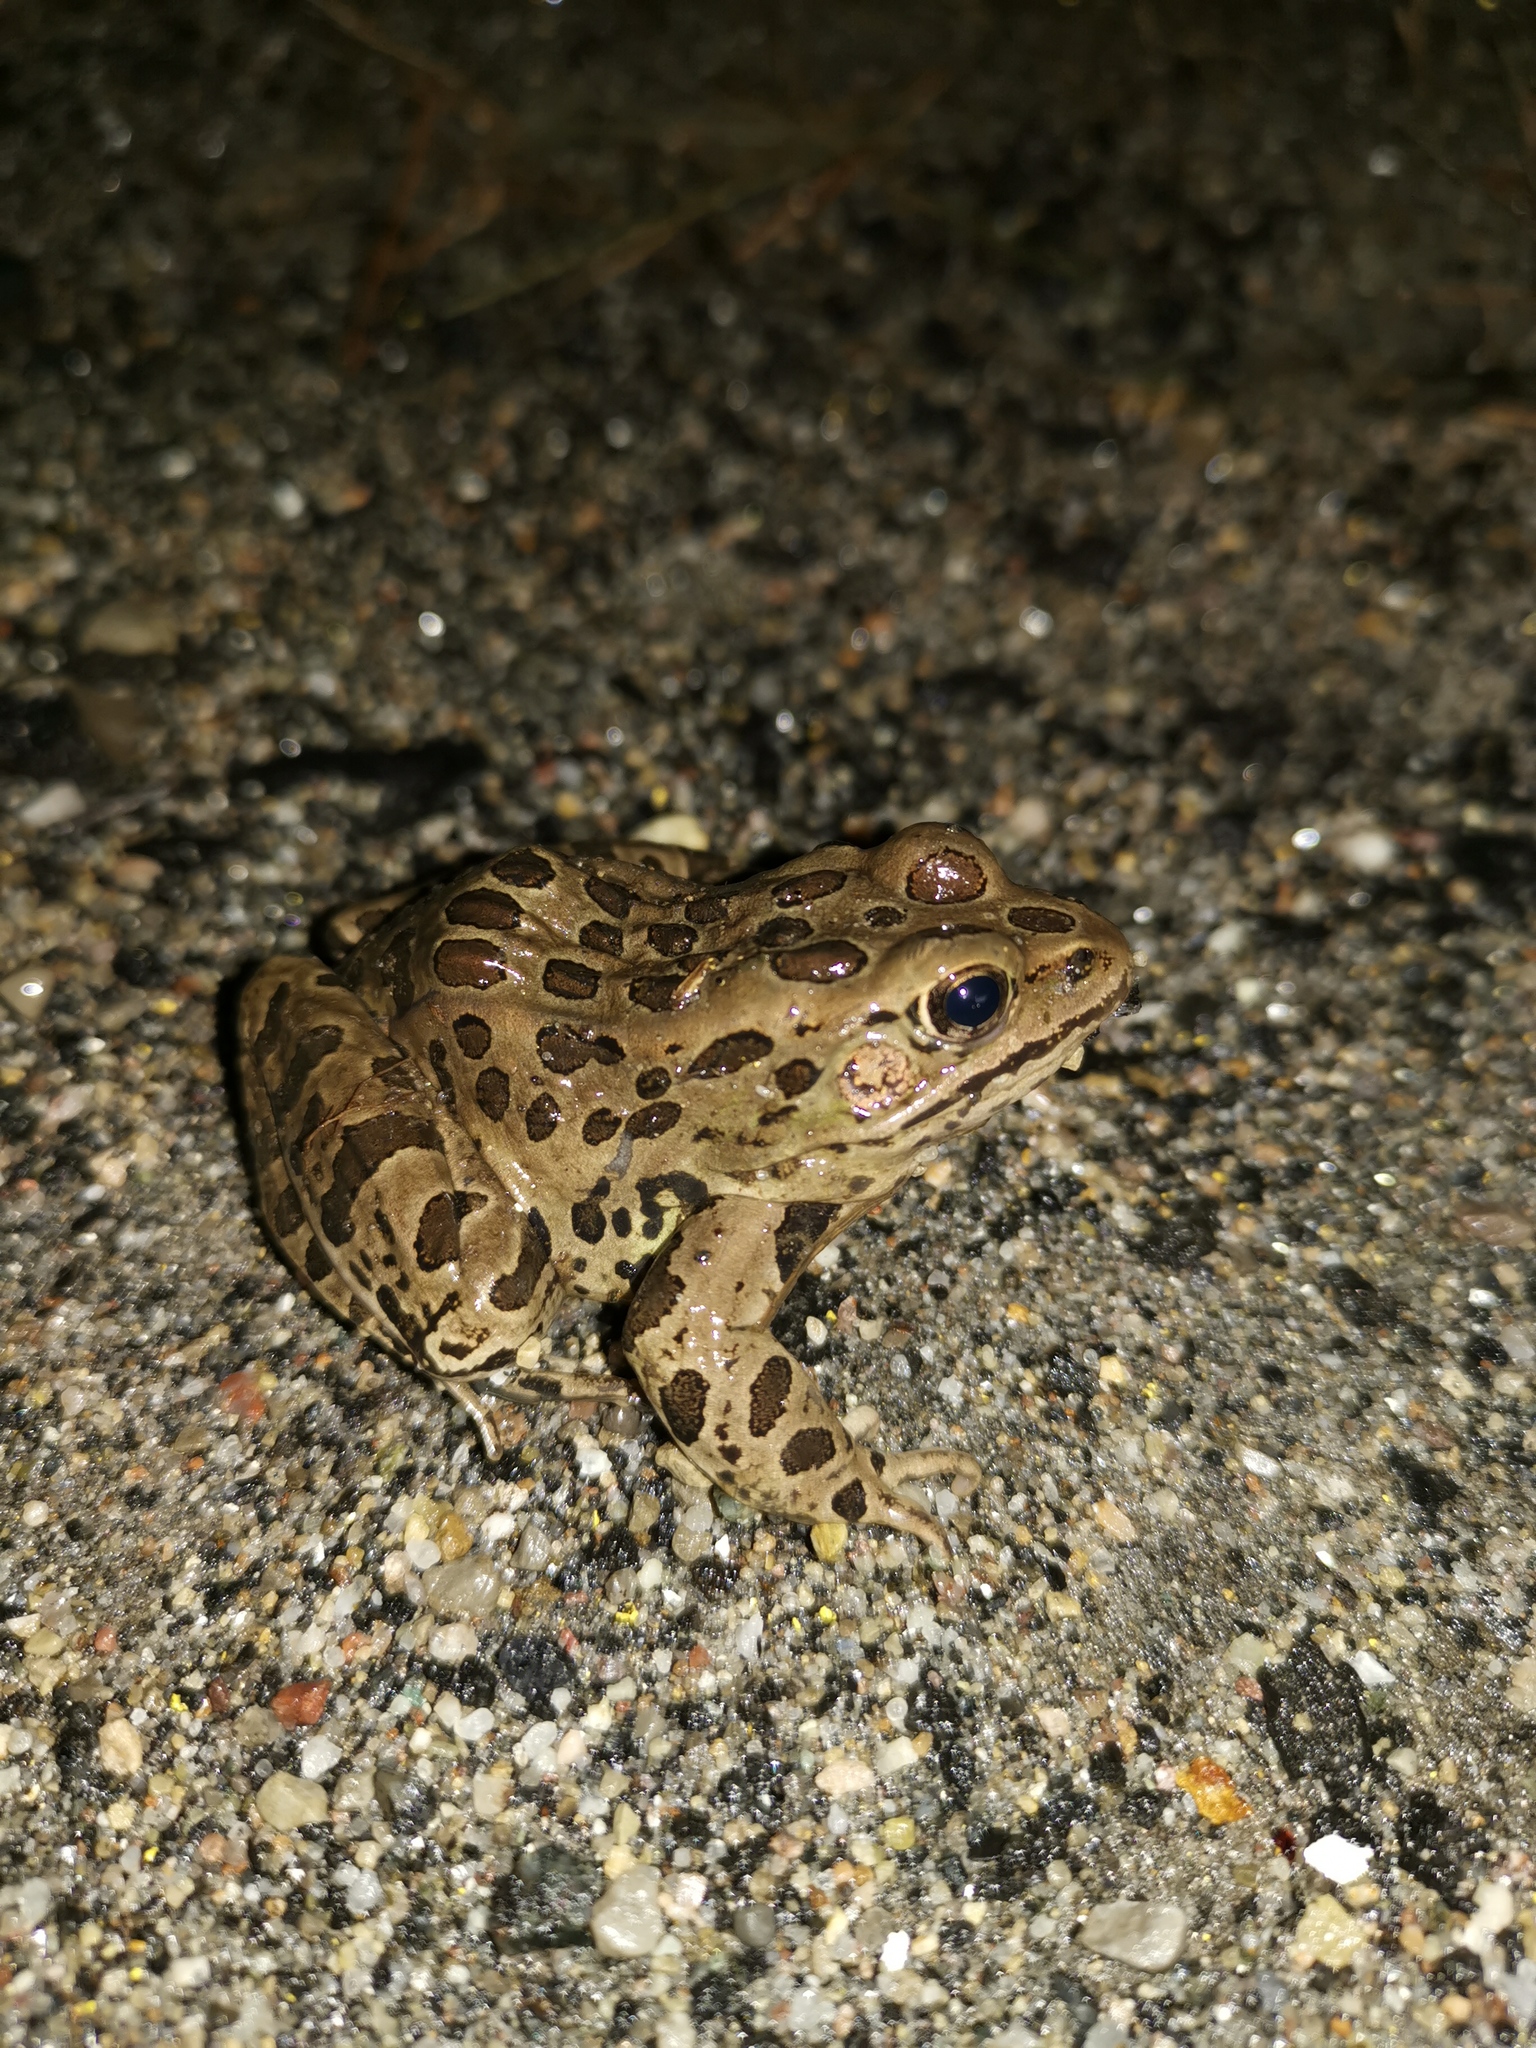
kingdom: Animalia
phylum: Chordata
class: Amphibia
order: Anura
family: Ranidae
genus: Lithobates
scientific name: Lithobates pipiens
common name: Northern leopard frog
